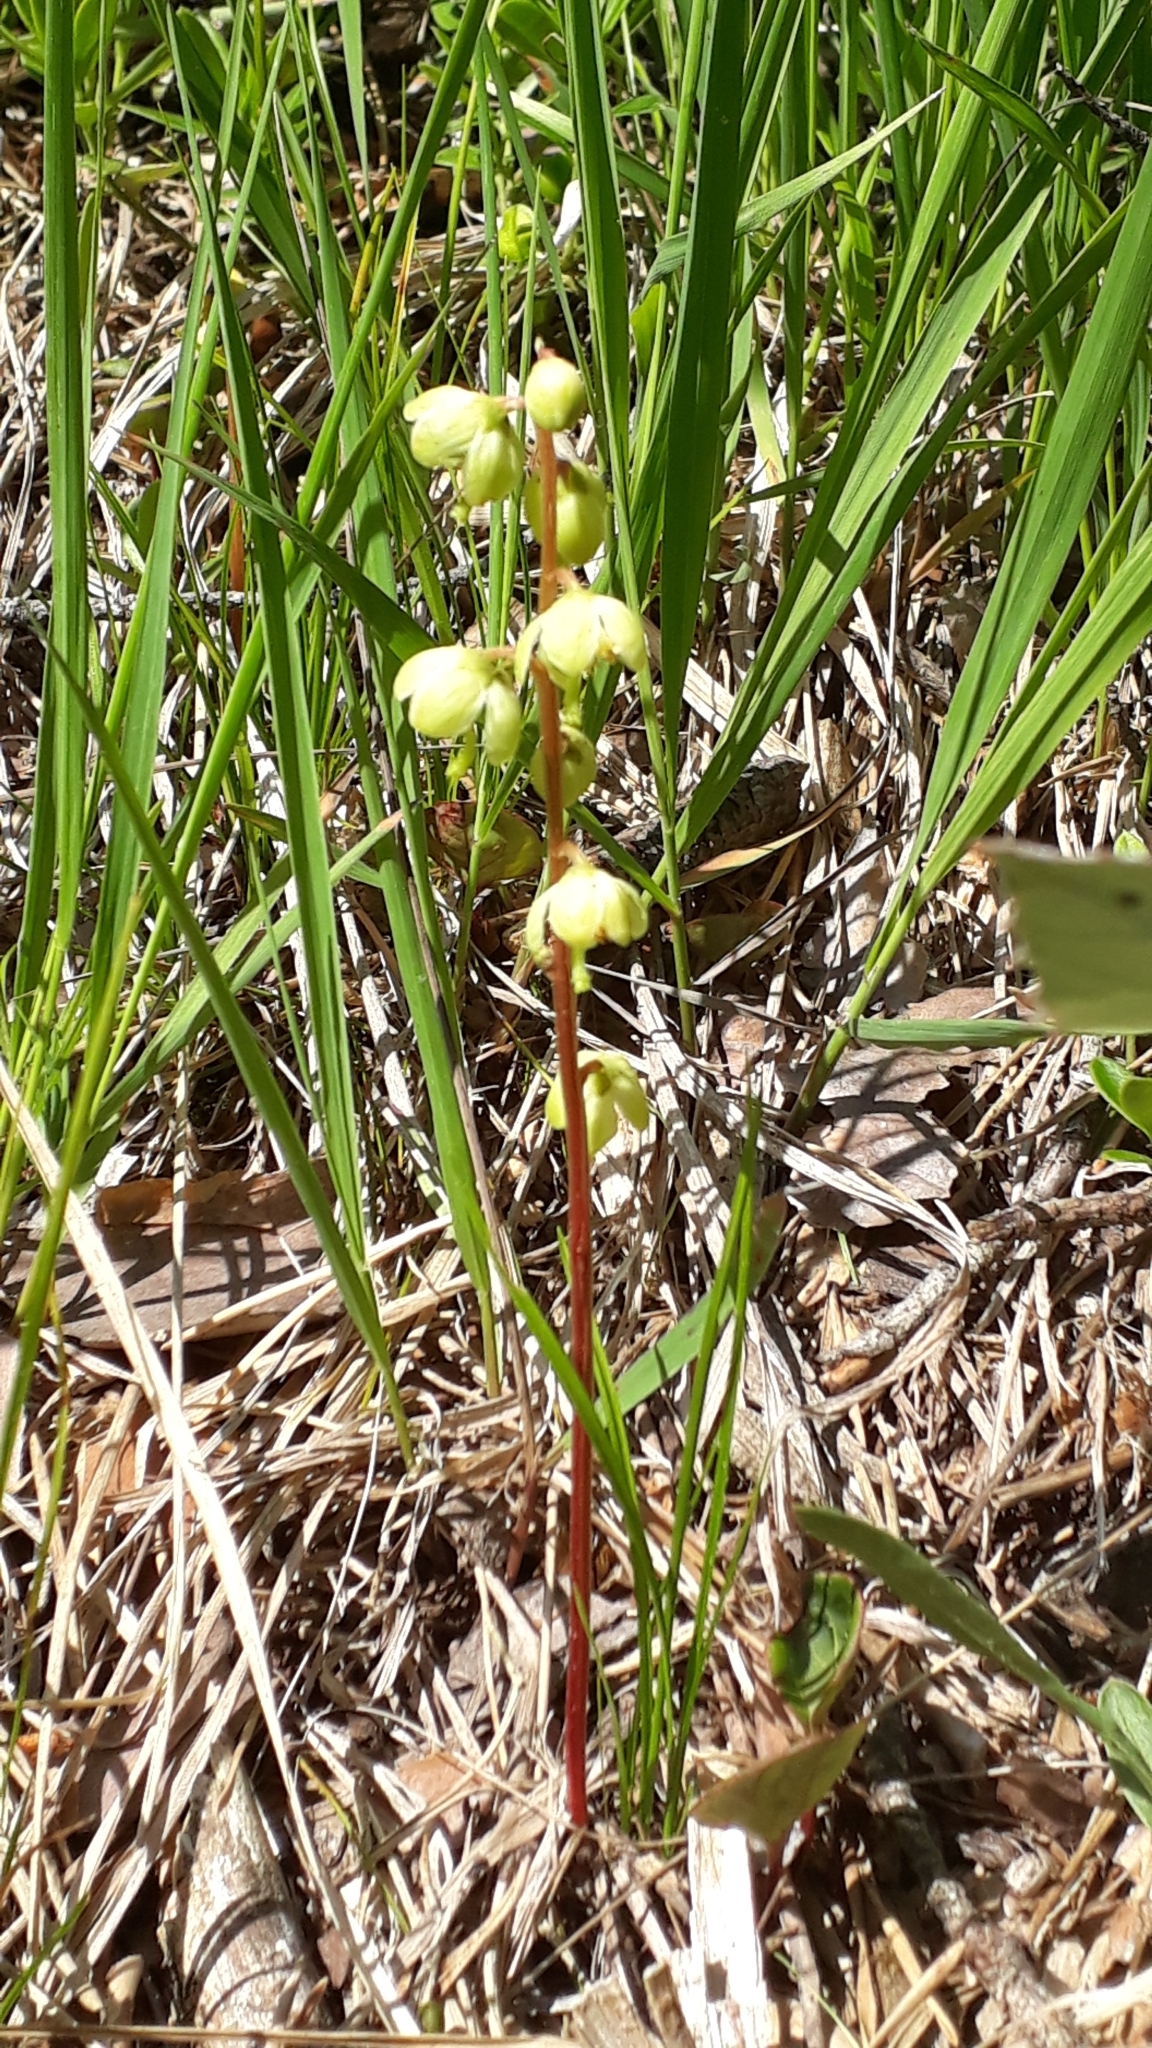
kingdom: Plantae
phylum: Tracheophyta
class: Magnoliopsida
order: Ericales
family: Ericaceae
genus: Pyrola
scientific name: Pyrola chlorantha
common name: Green wintergreen
